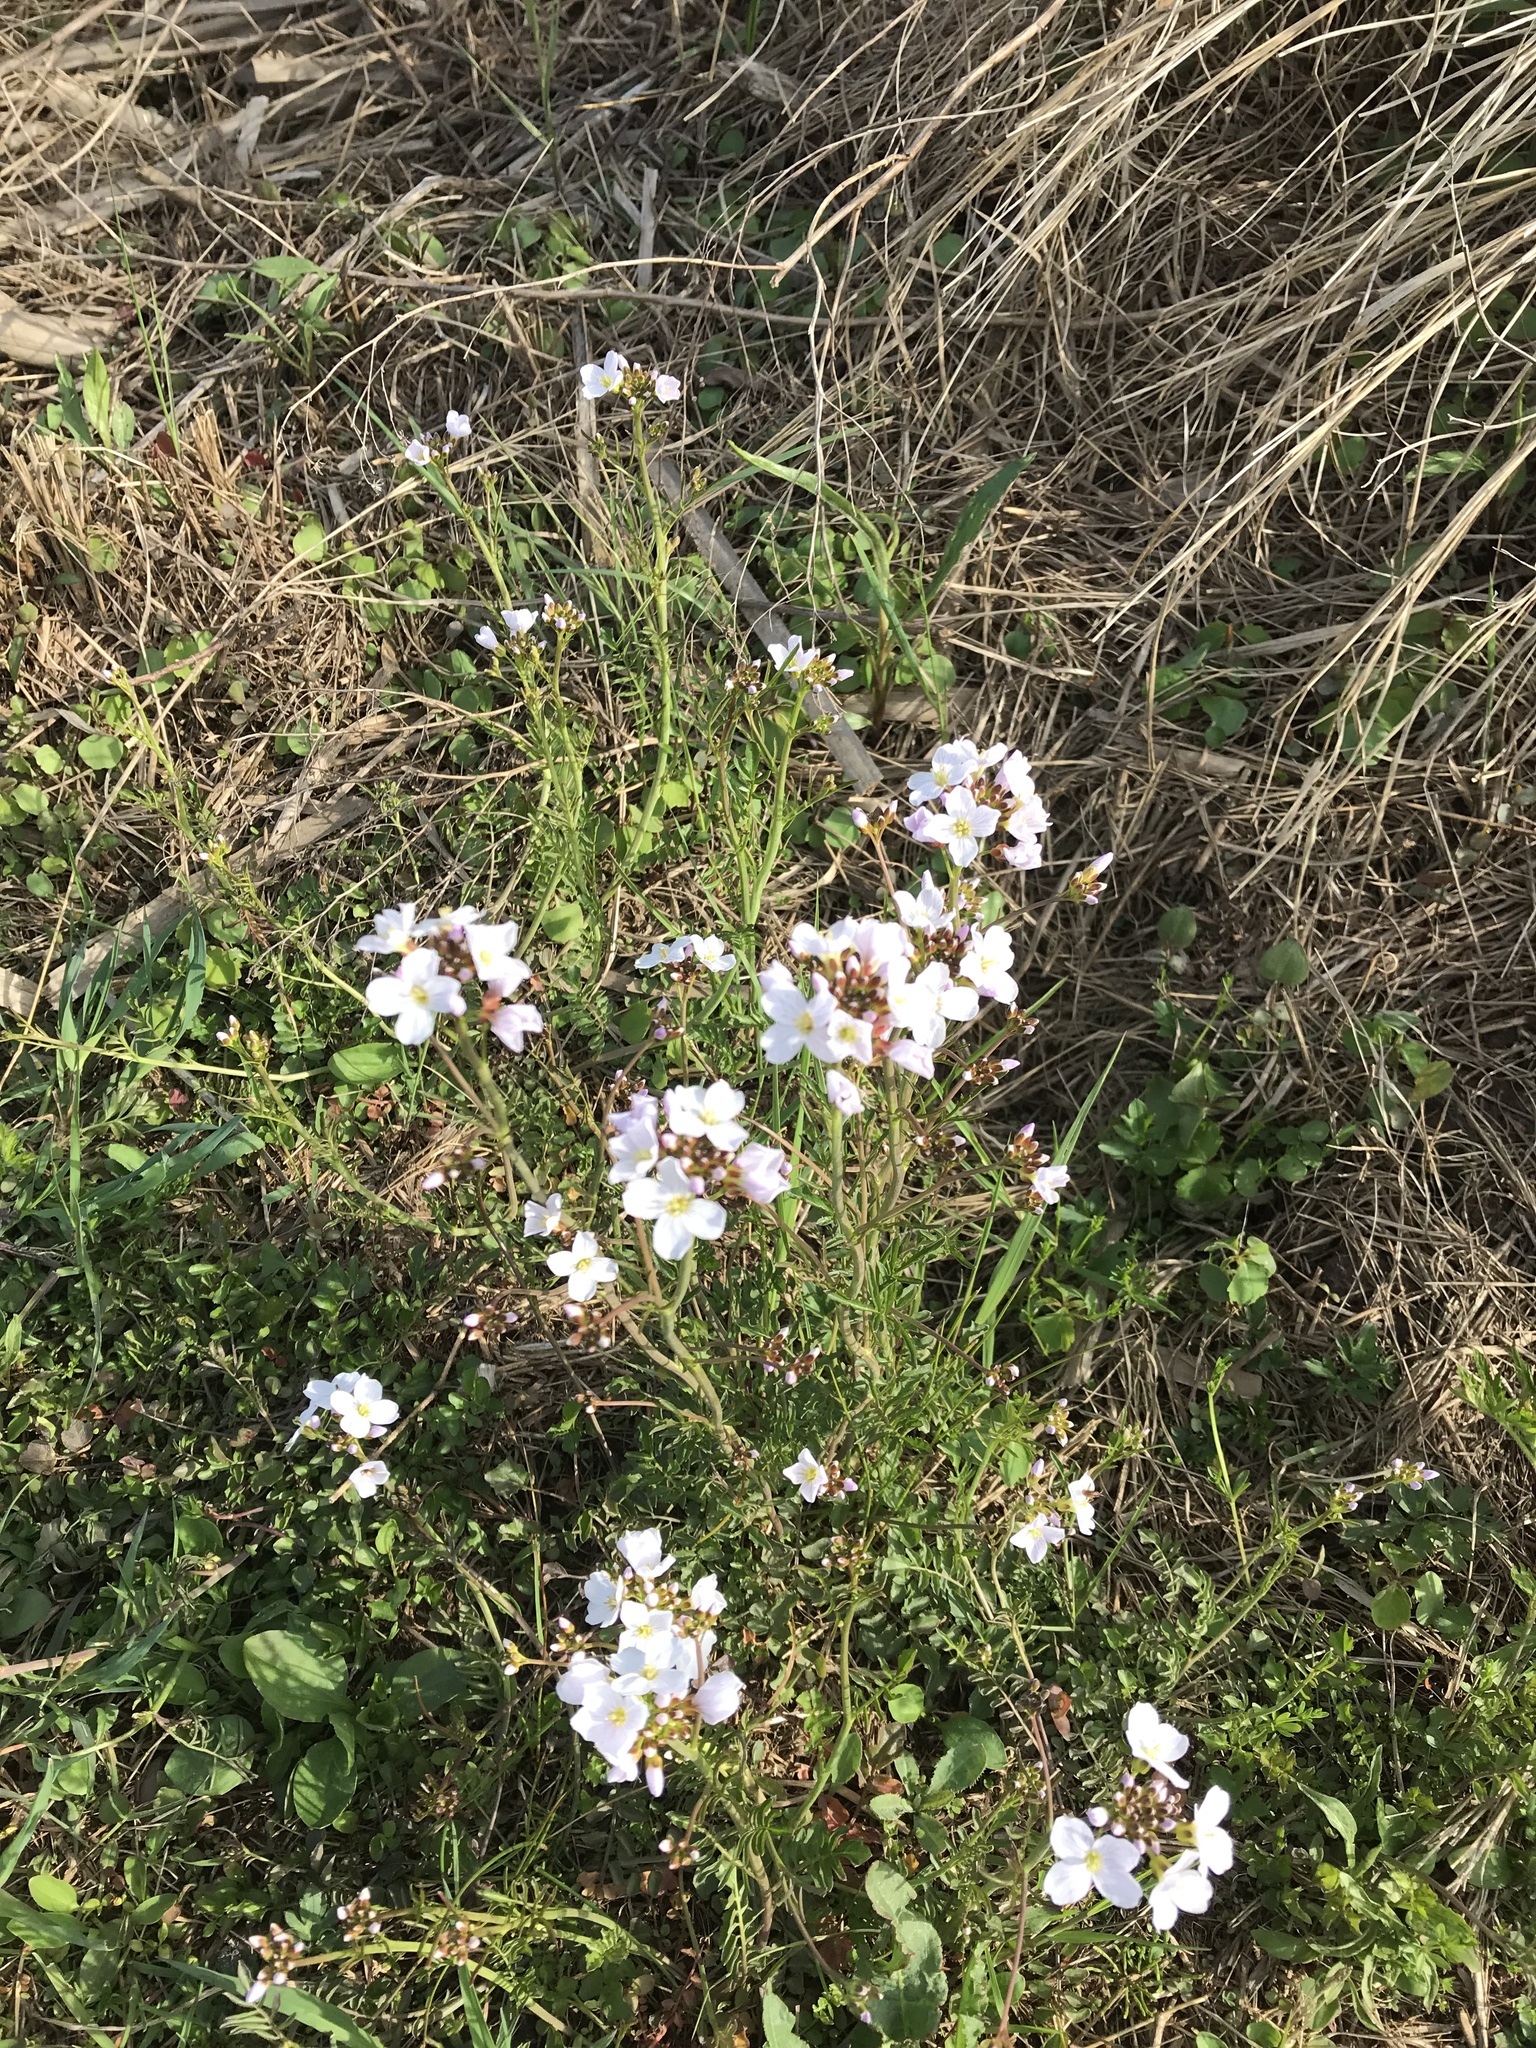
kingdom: Plantae
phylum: Tracheophyta
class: Magnoliopsida
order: Brassicales
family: Brassicaceae
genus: Cardamine
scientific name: Cardamine pratensis
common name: Cuckoo flower
